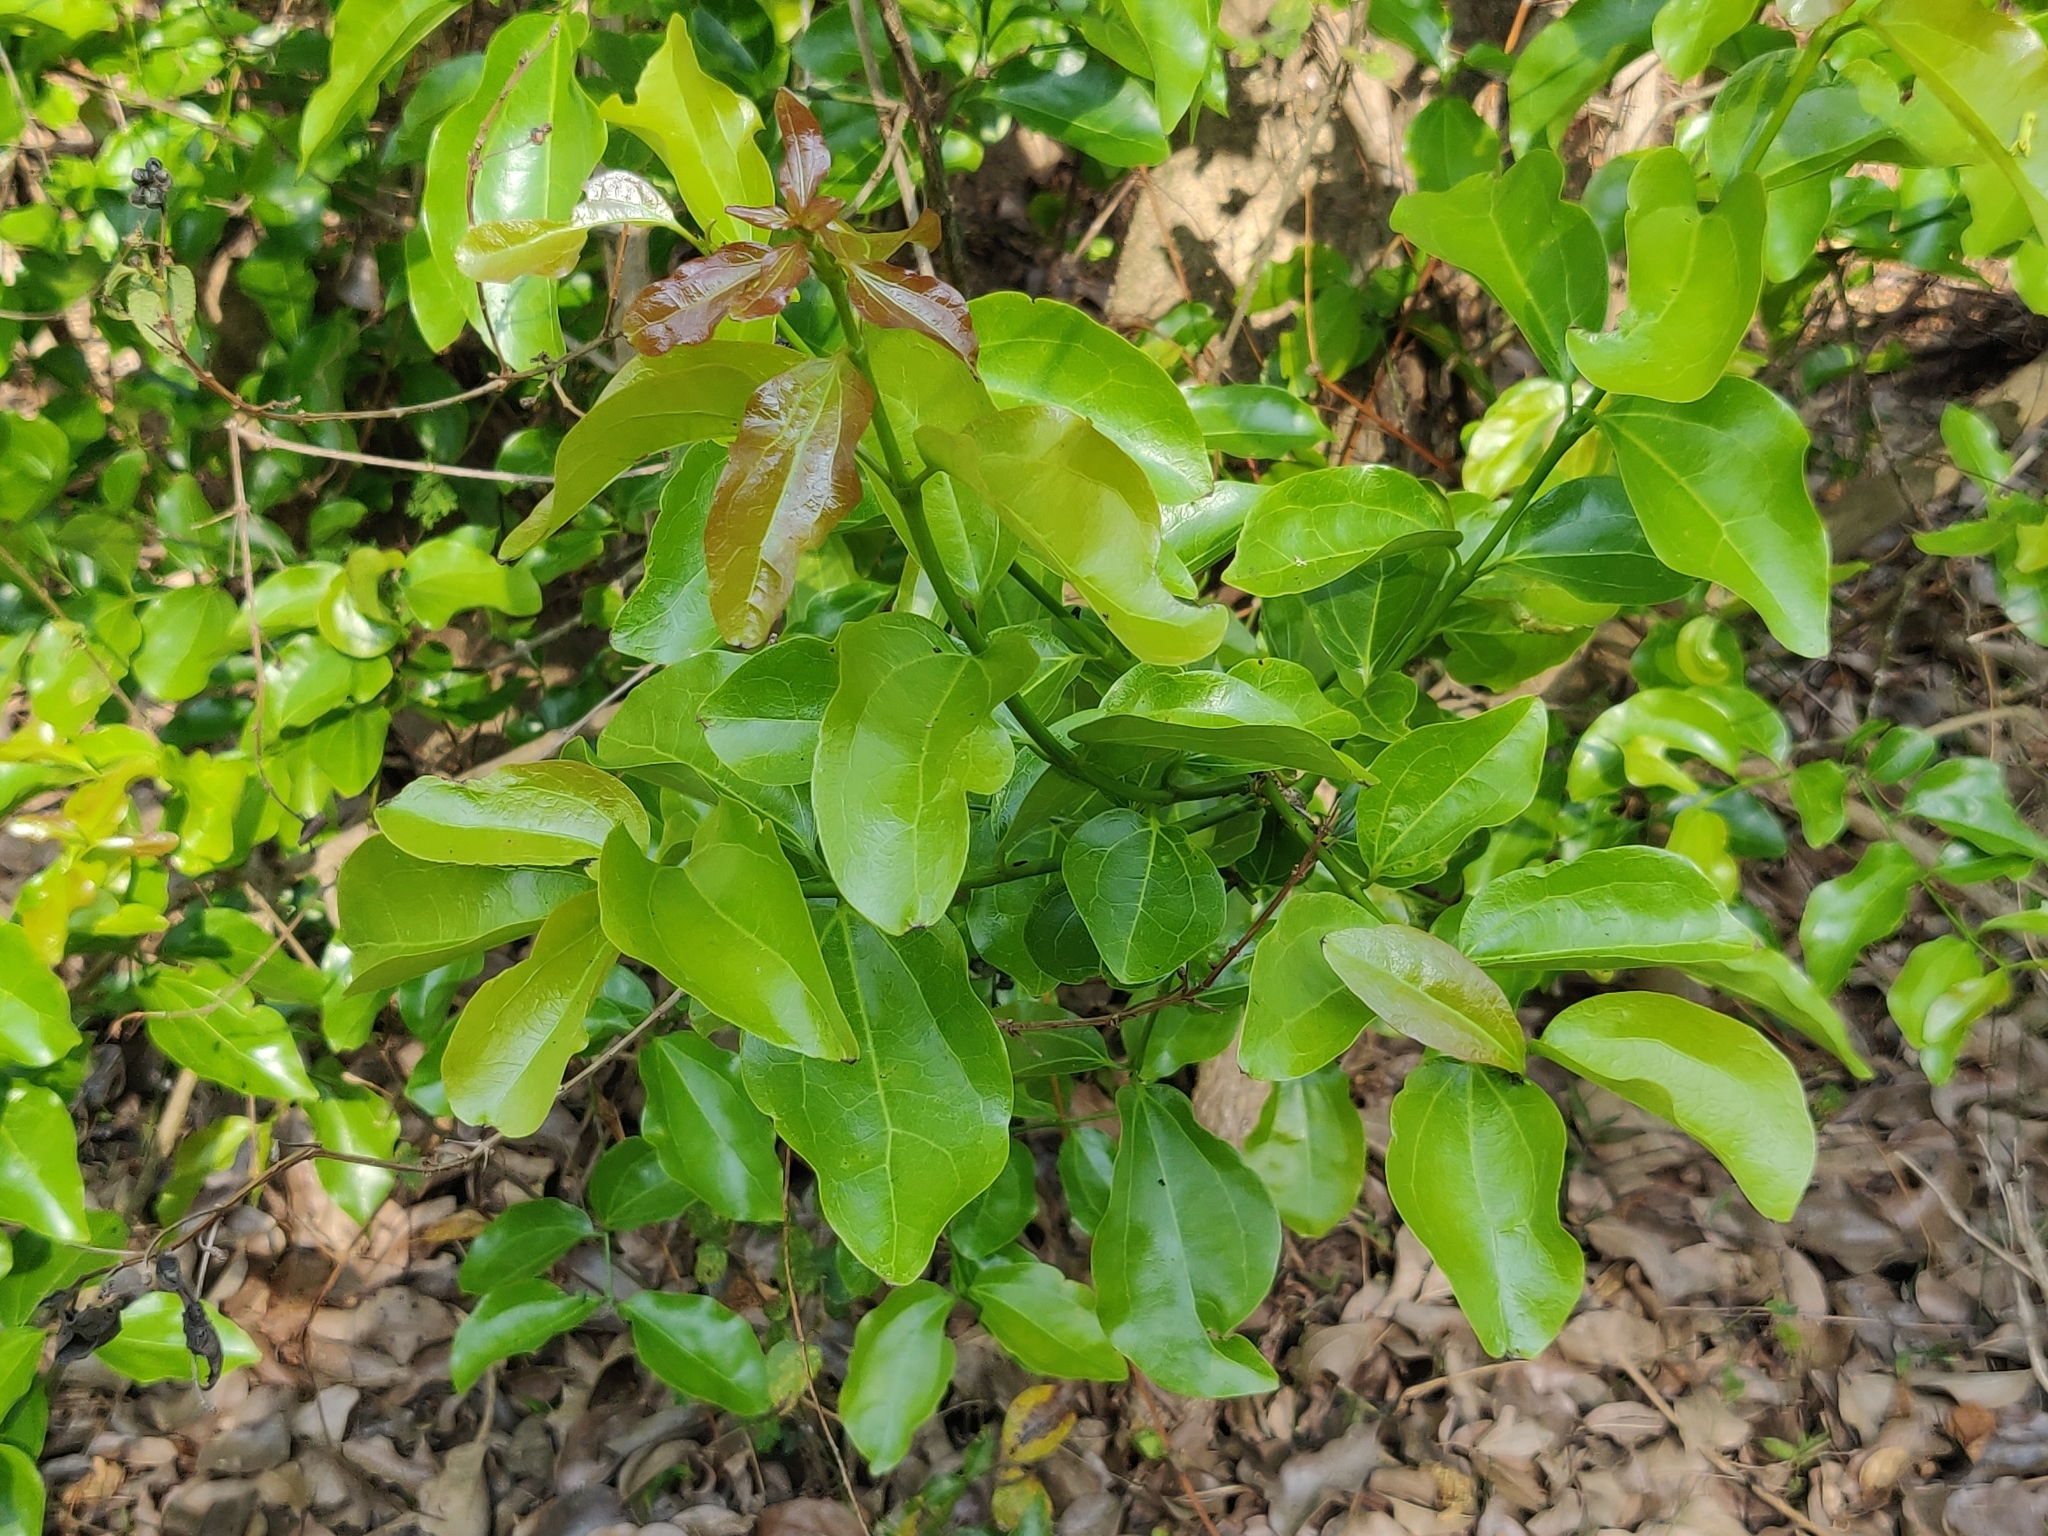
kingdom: Plantae
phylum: Tracheophyta
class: Magnoliopsida
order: Gentianales
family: Loganiaceae
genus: Strychnos
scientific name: Strychnos nux-vomica
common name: Strychninetree
